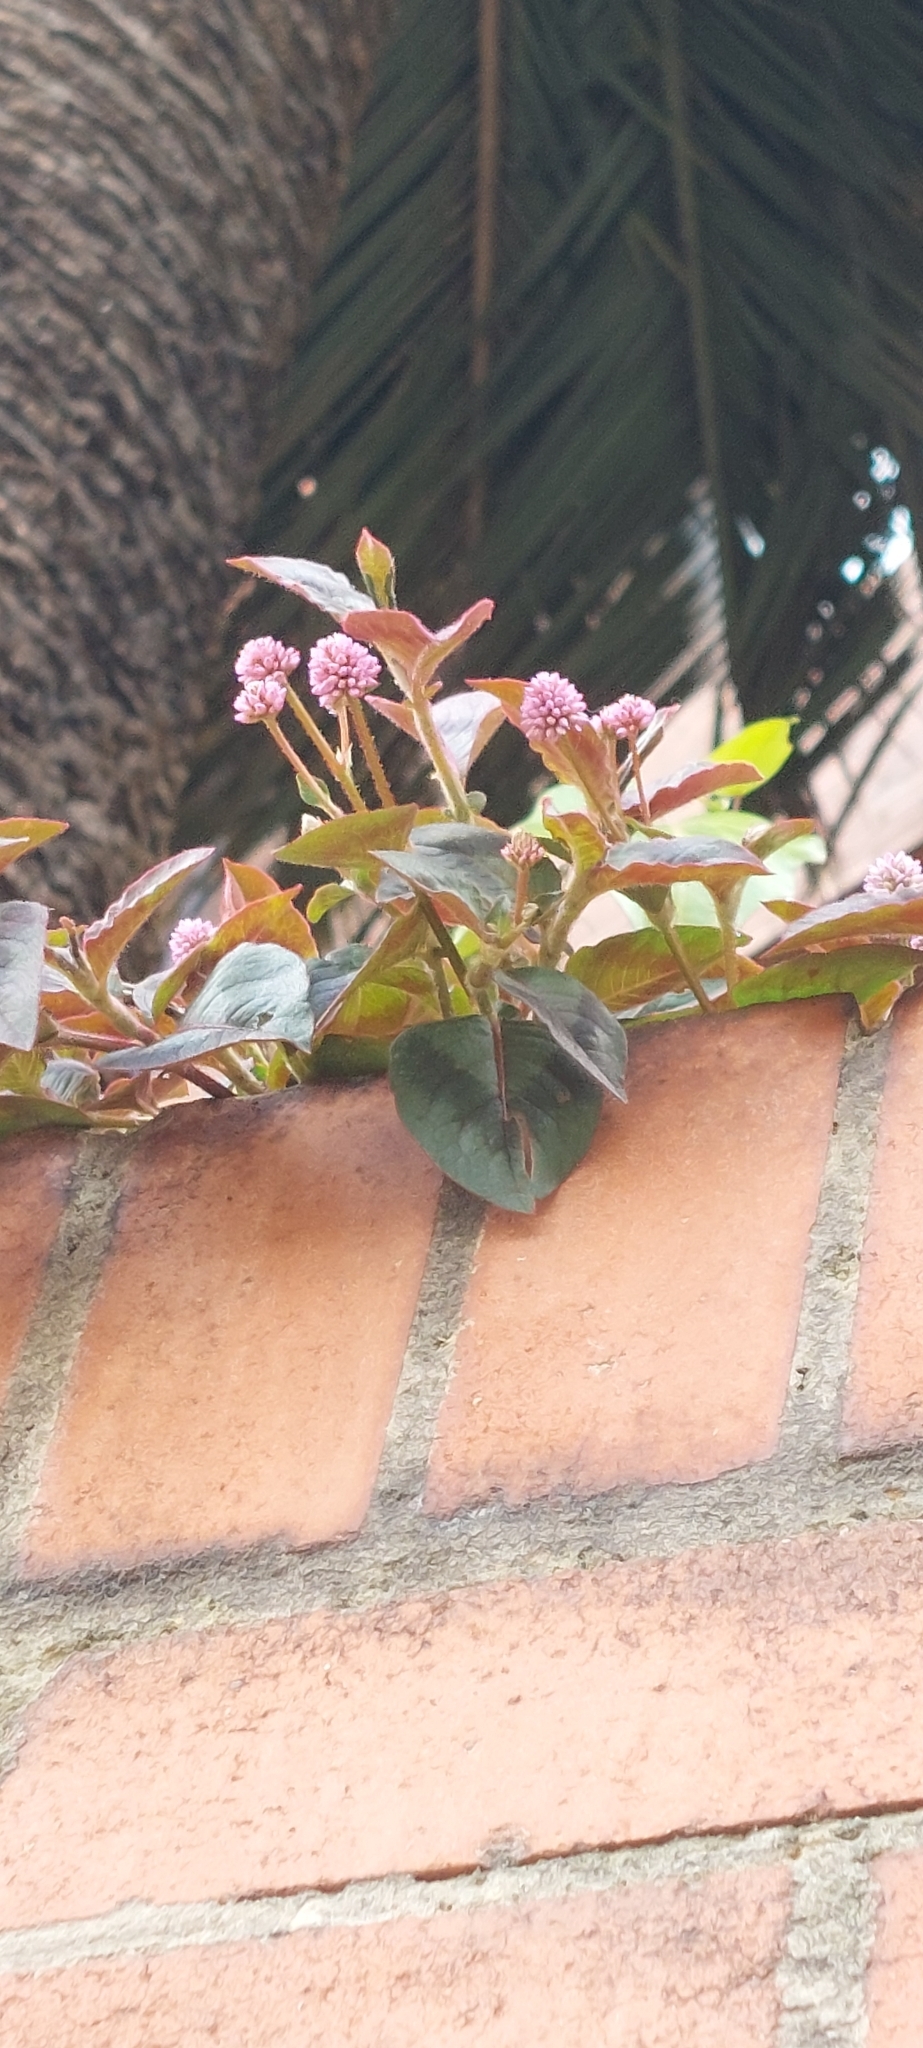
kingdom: Plantae
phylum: Tracheophyta
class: Magnoliopsida
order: Caryophyllales
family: Polygonaceae
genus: Persicaria
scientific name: Persicaria capitata
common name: Pinkhead smartweed
